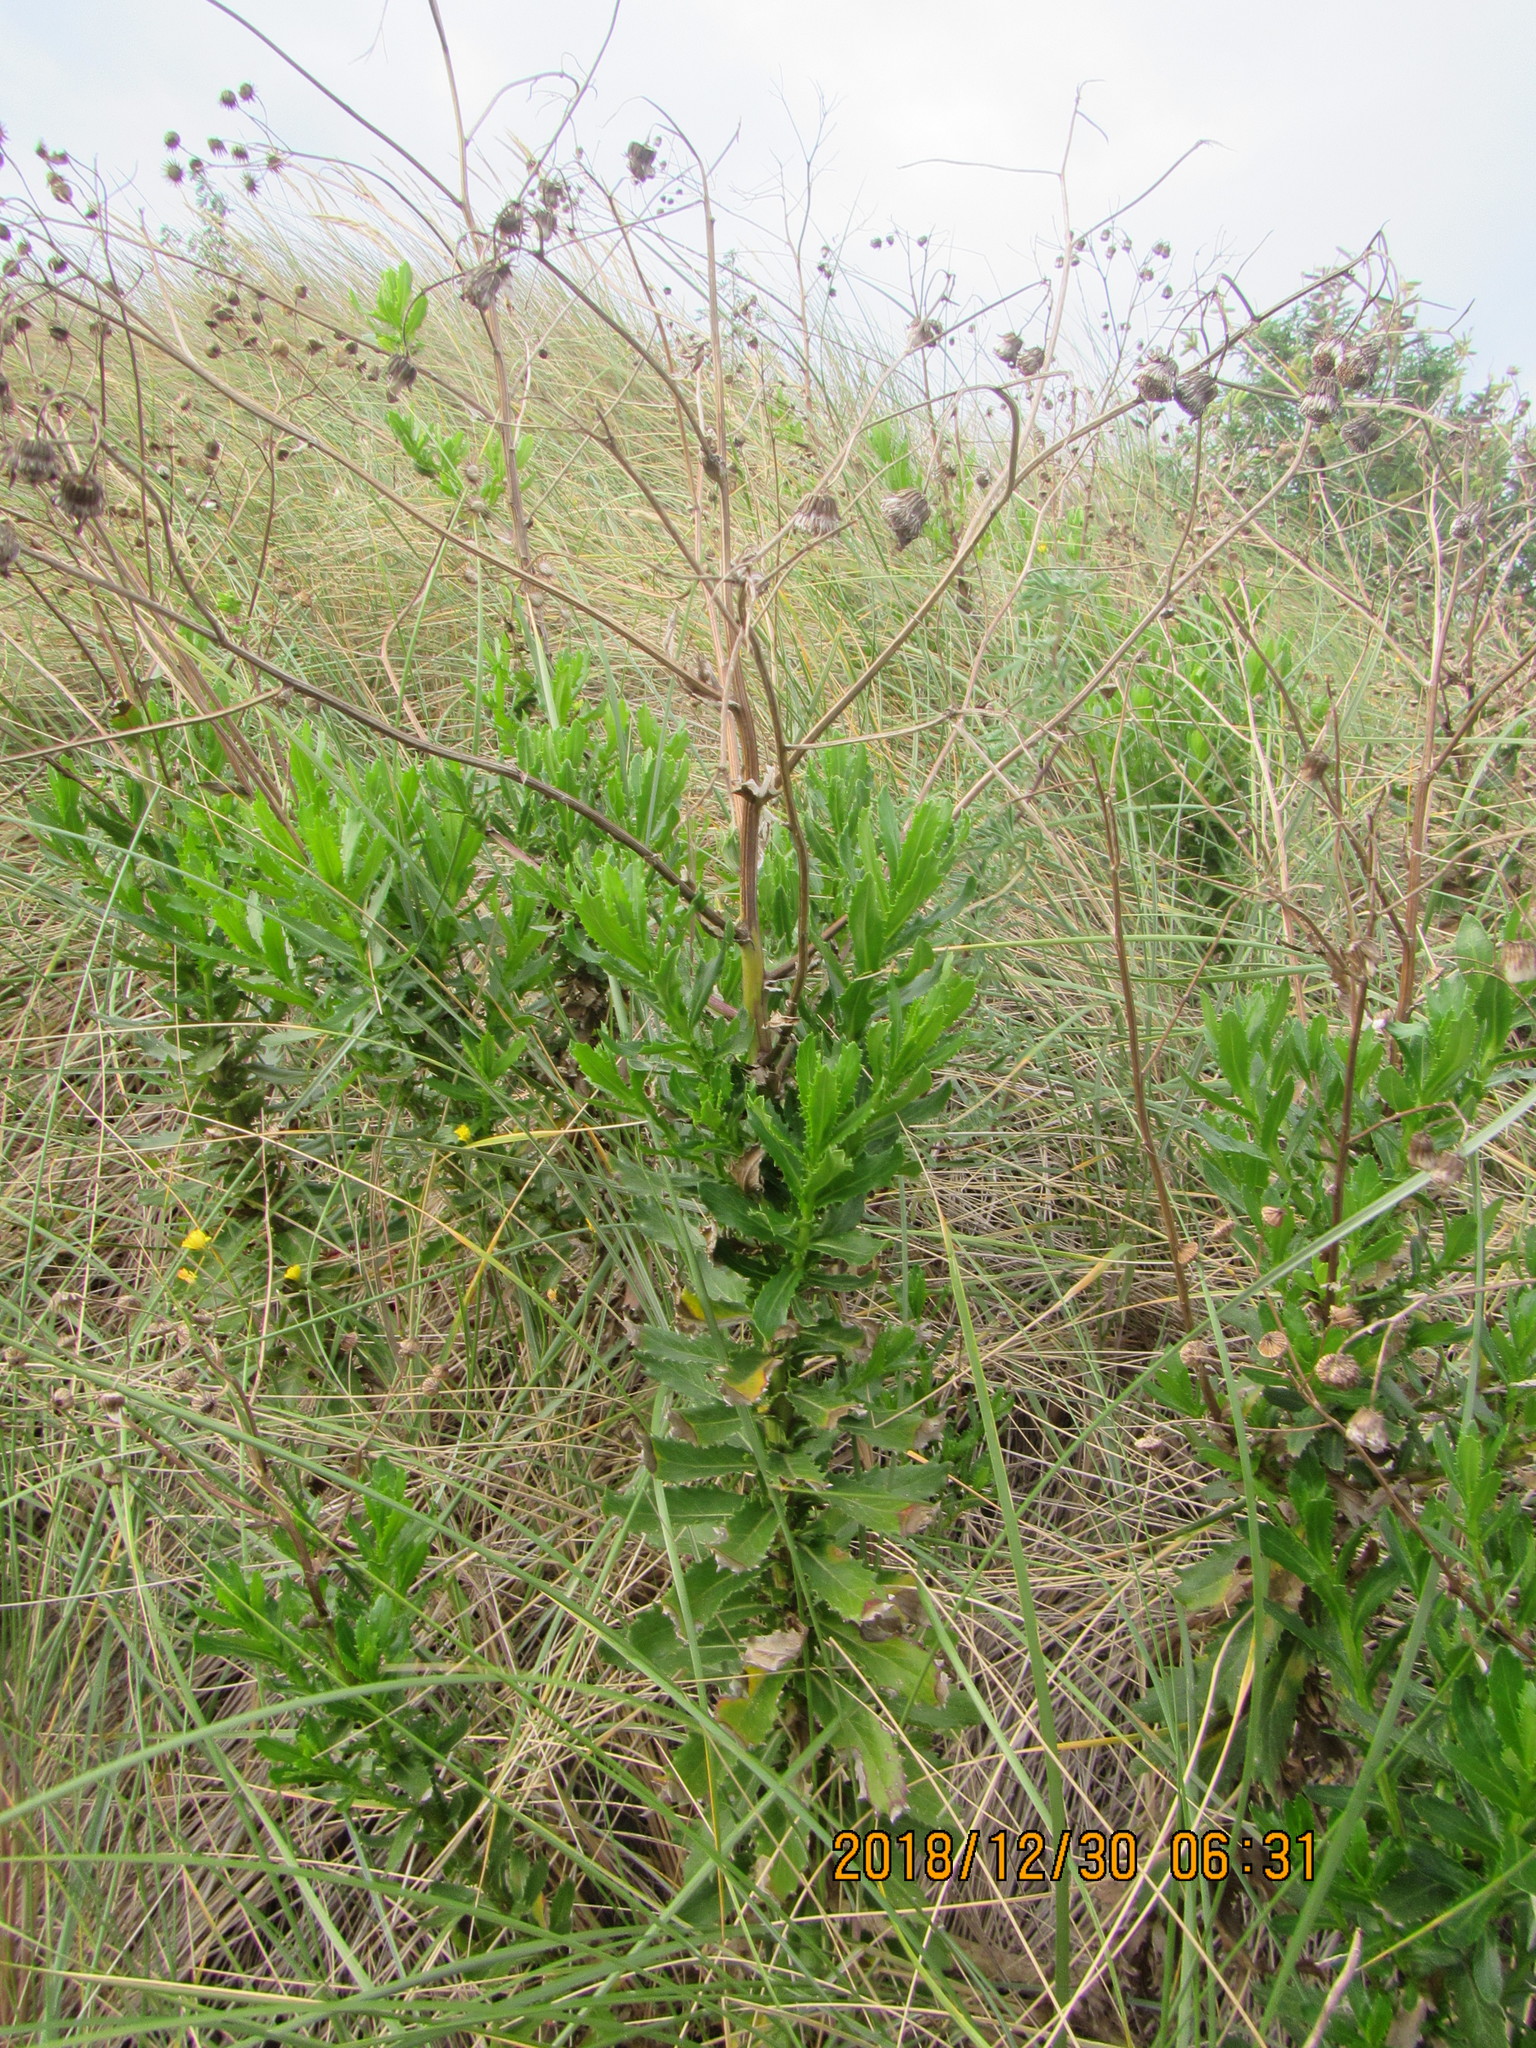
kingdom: Plantae
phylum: Tracheophyta
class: Magnoliopsida
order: Asterales
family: Asteraceae
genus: Senecio
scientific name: Senecio glastifolius
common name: Woad-leaved ragwort
